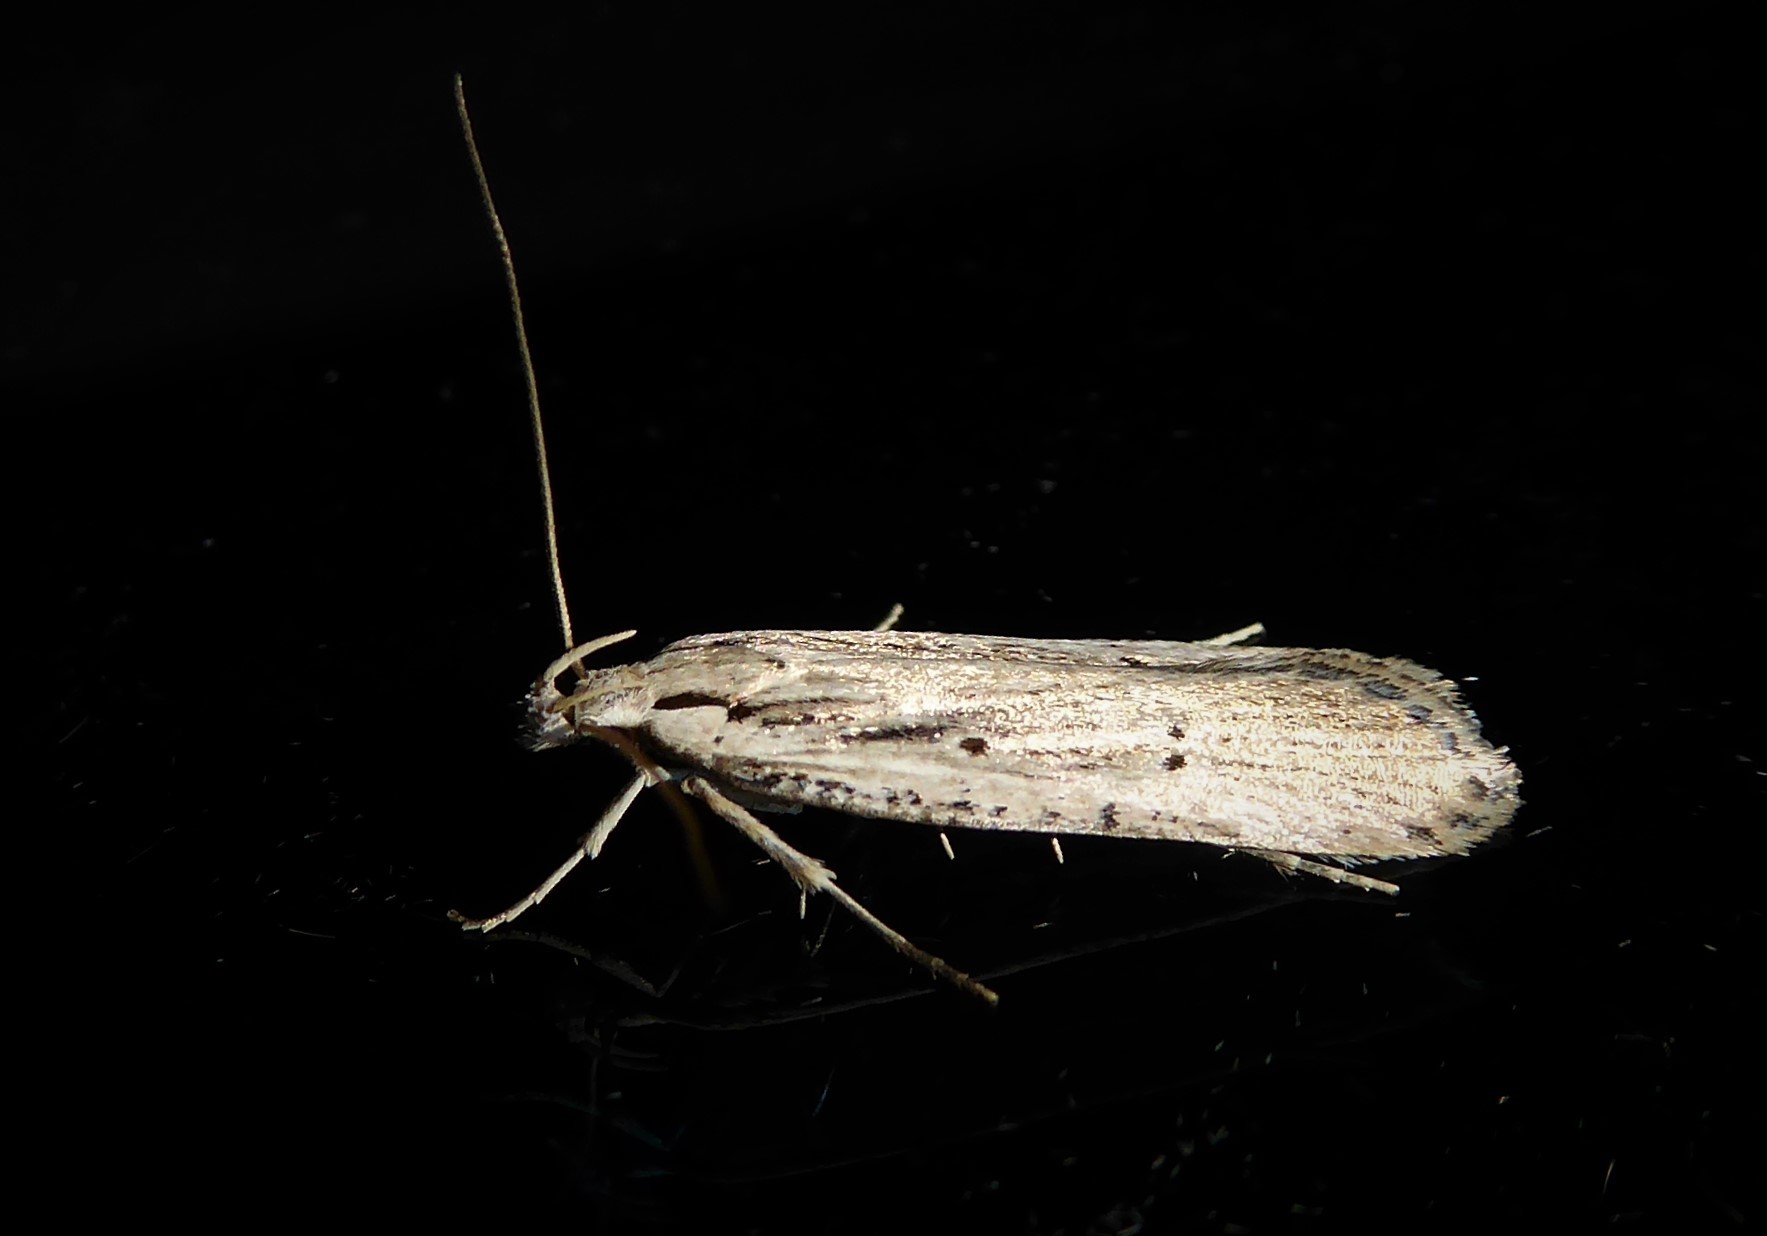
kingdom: Animalia
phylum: Arthropoda
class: Insecta
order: Lepidoptera
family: Gelechiidae
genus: Anisoplaca
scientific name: Anisoplaca ptyoptera
